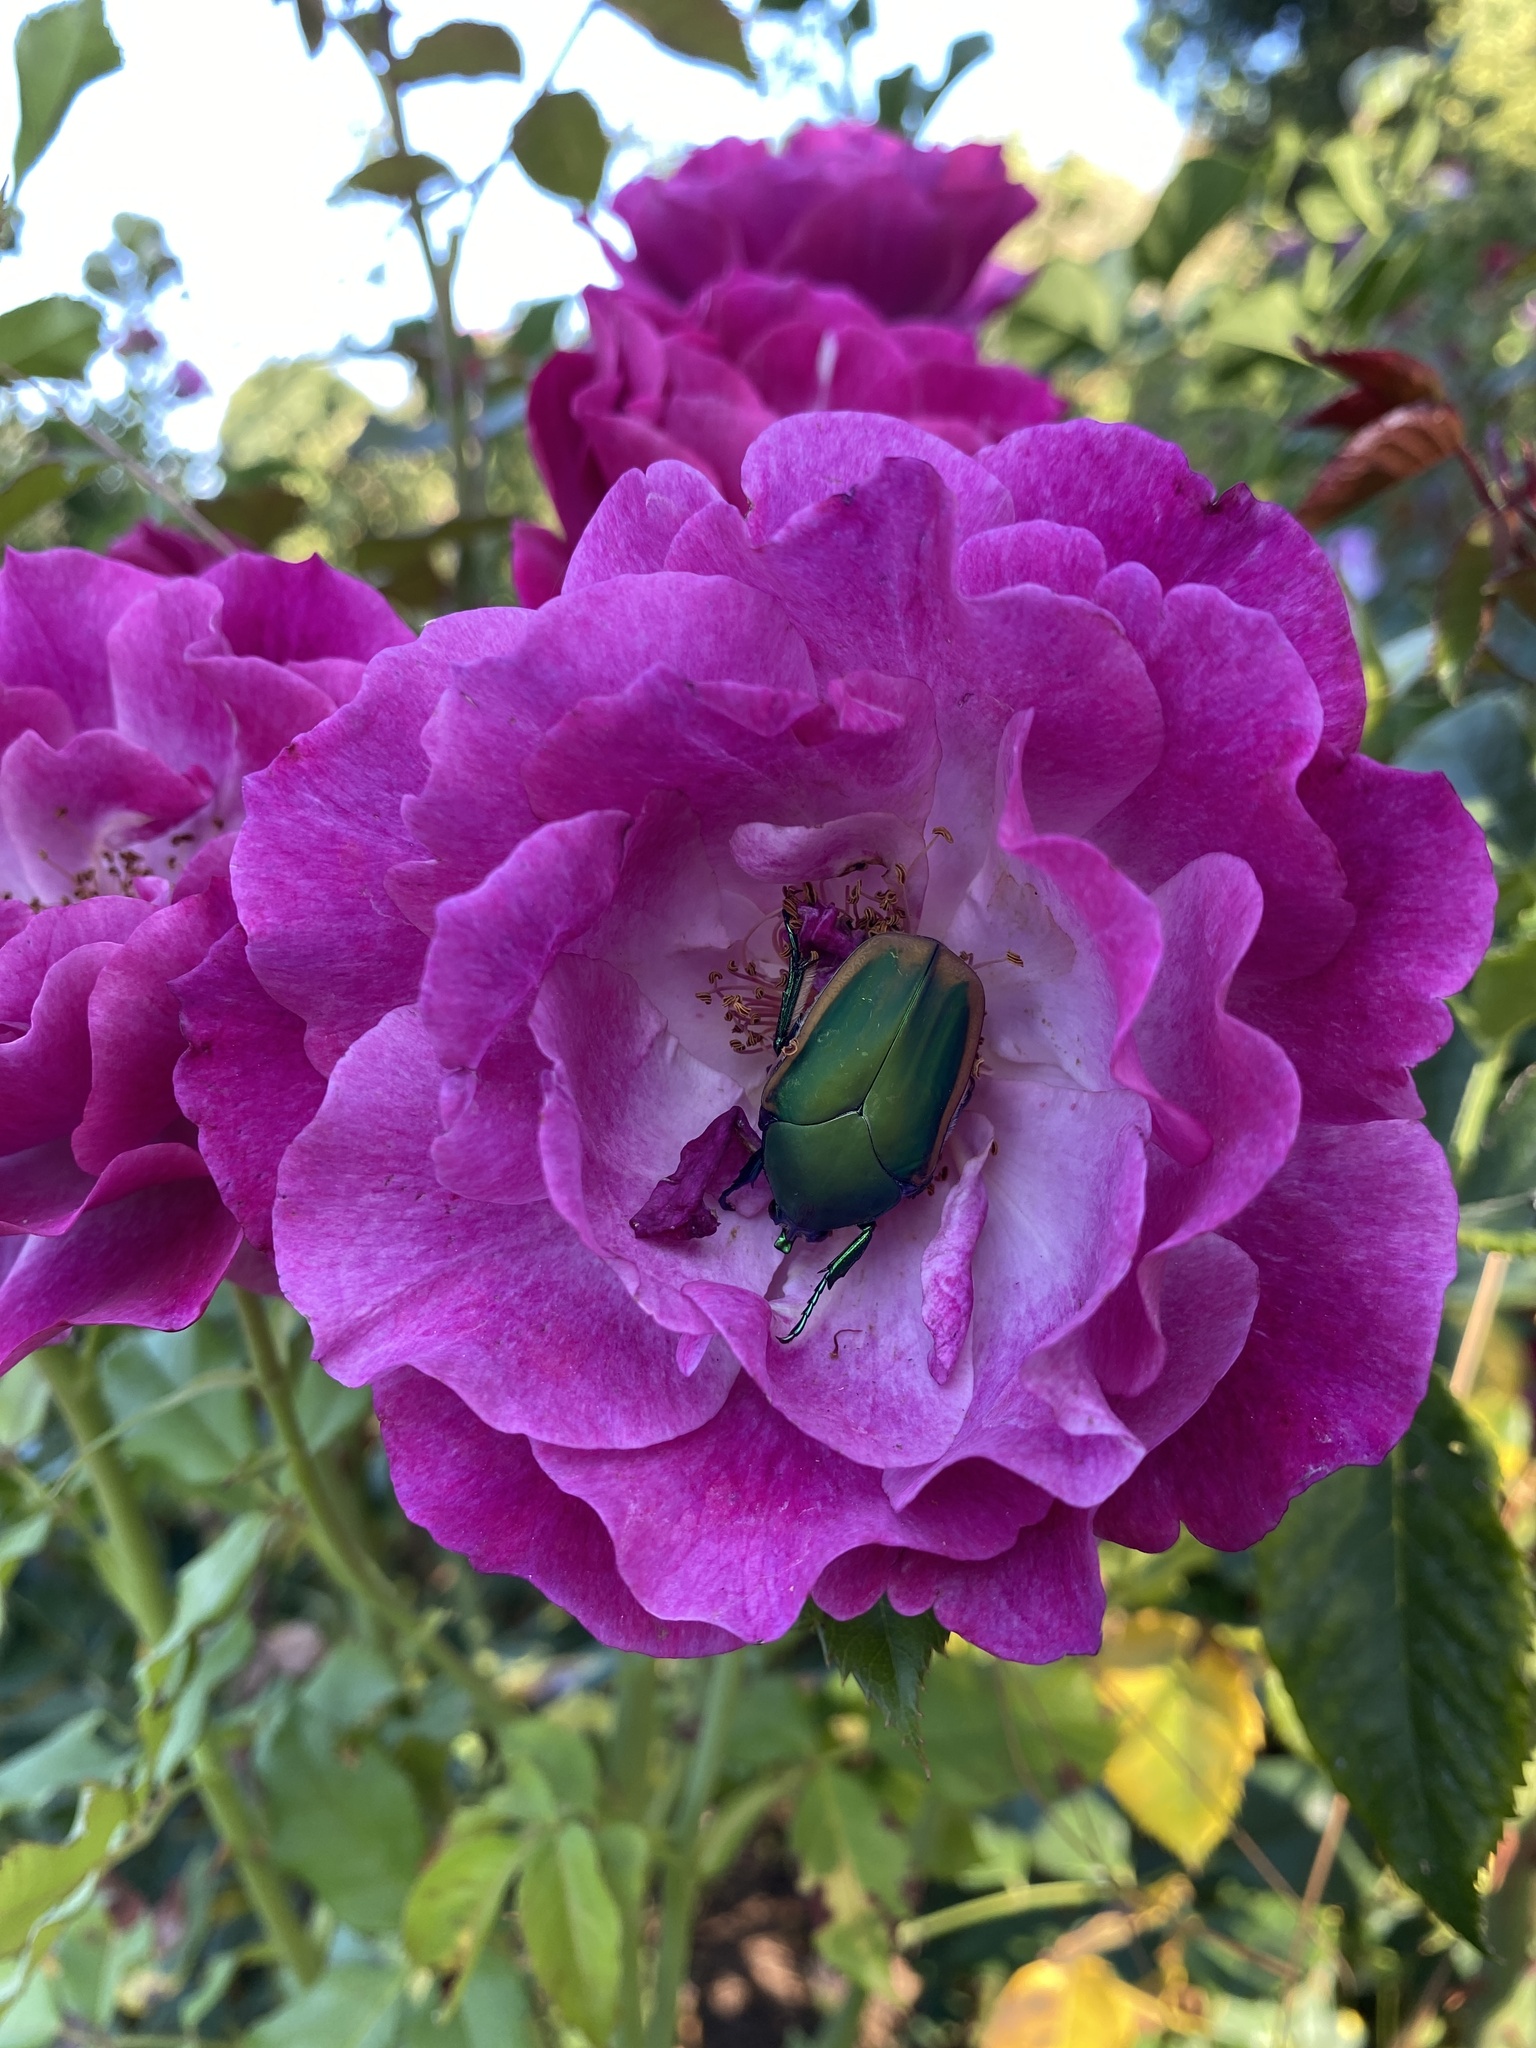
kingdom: Animalia
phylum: Arthropoda
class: Insecta
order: Coleoptera
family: Scarabaeidae
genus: Cotinis
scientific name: Cotinis mutabilis
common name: Figeater beetle
